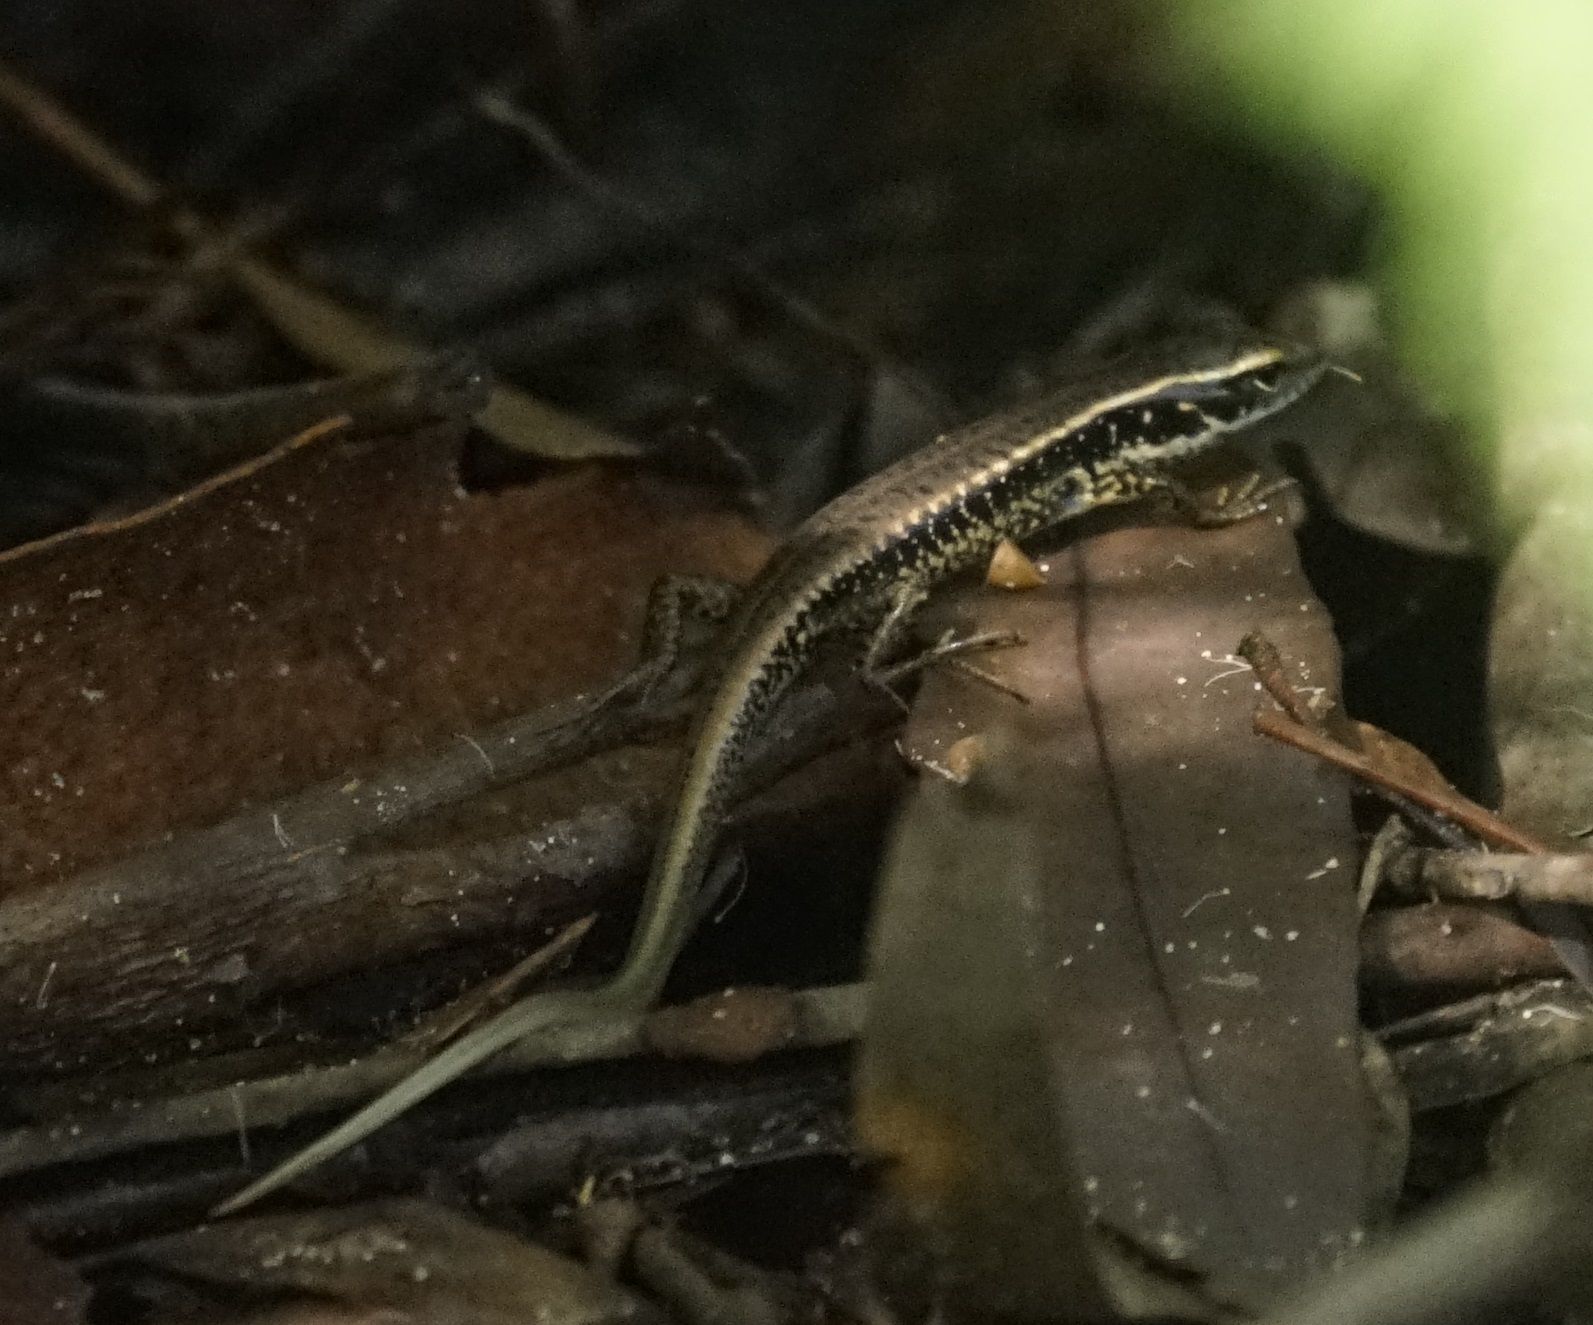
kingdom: Animalia
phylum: Chordata
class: Squamata
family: Scincidae
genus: Eulamprus
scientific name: Eulamprus quoyii
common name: Eastern water skink
